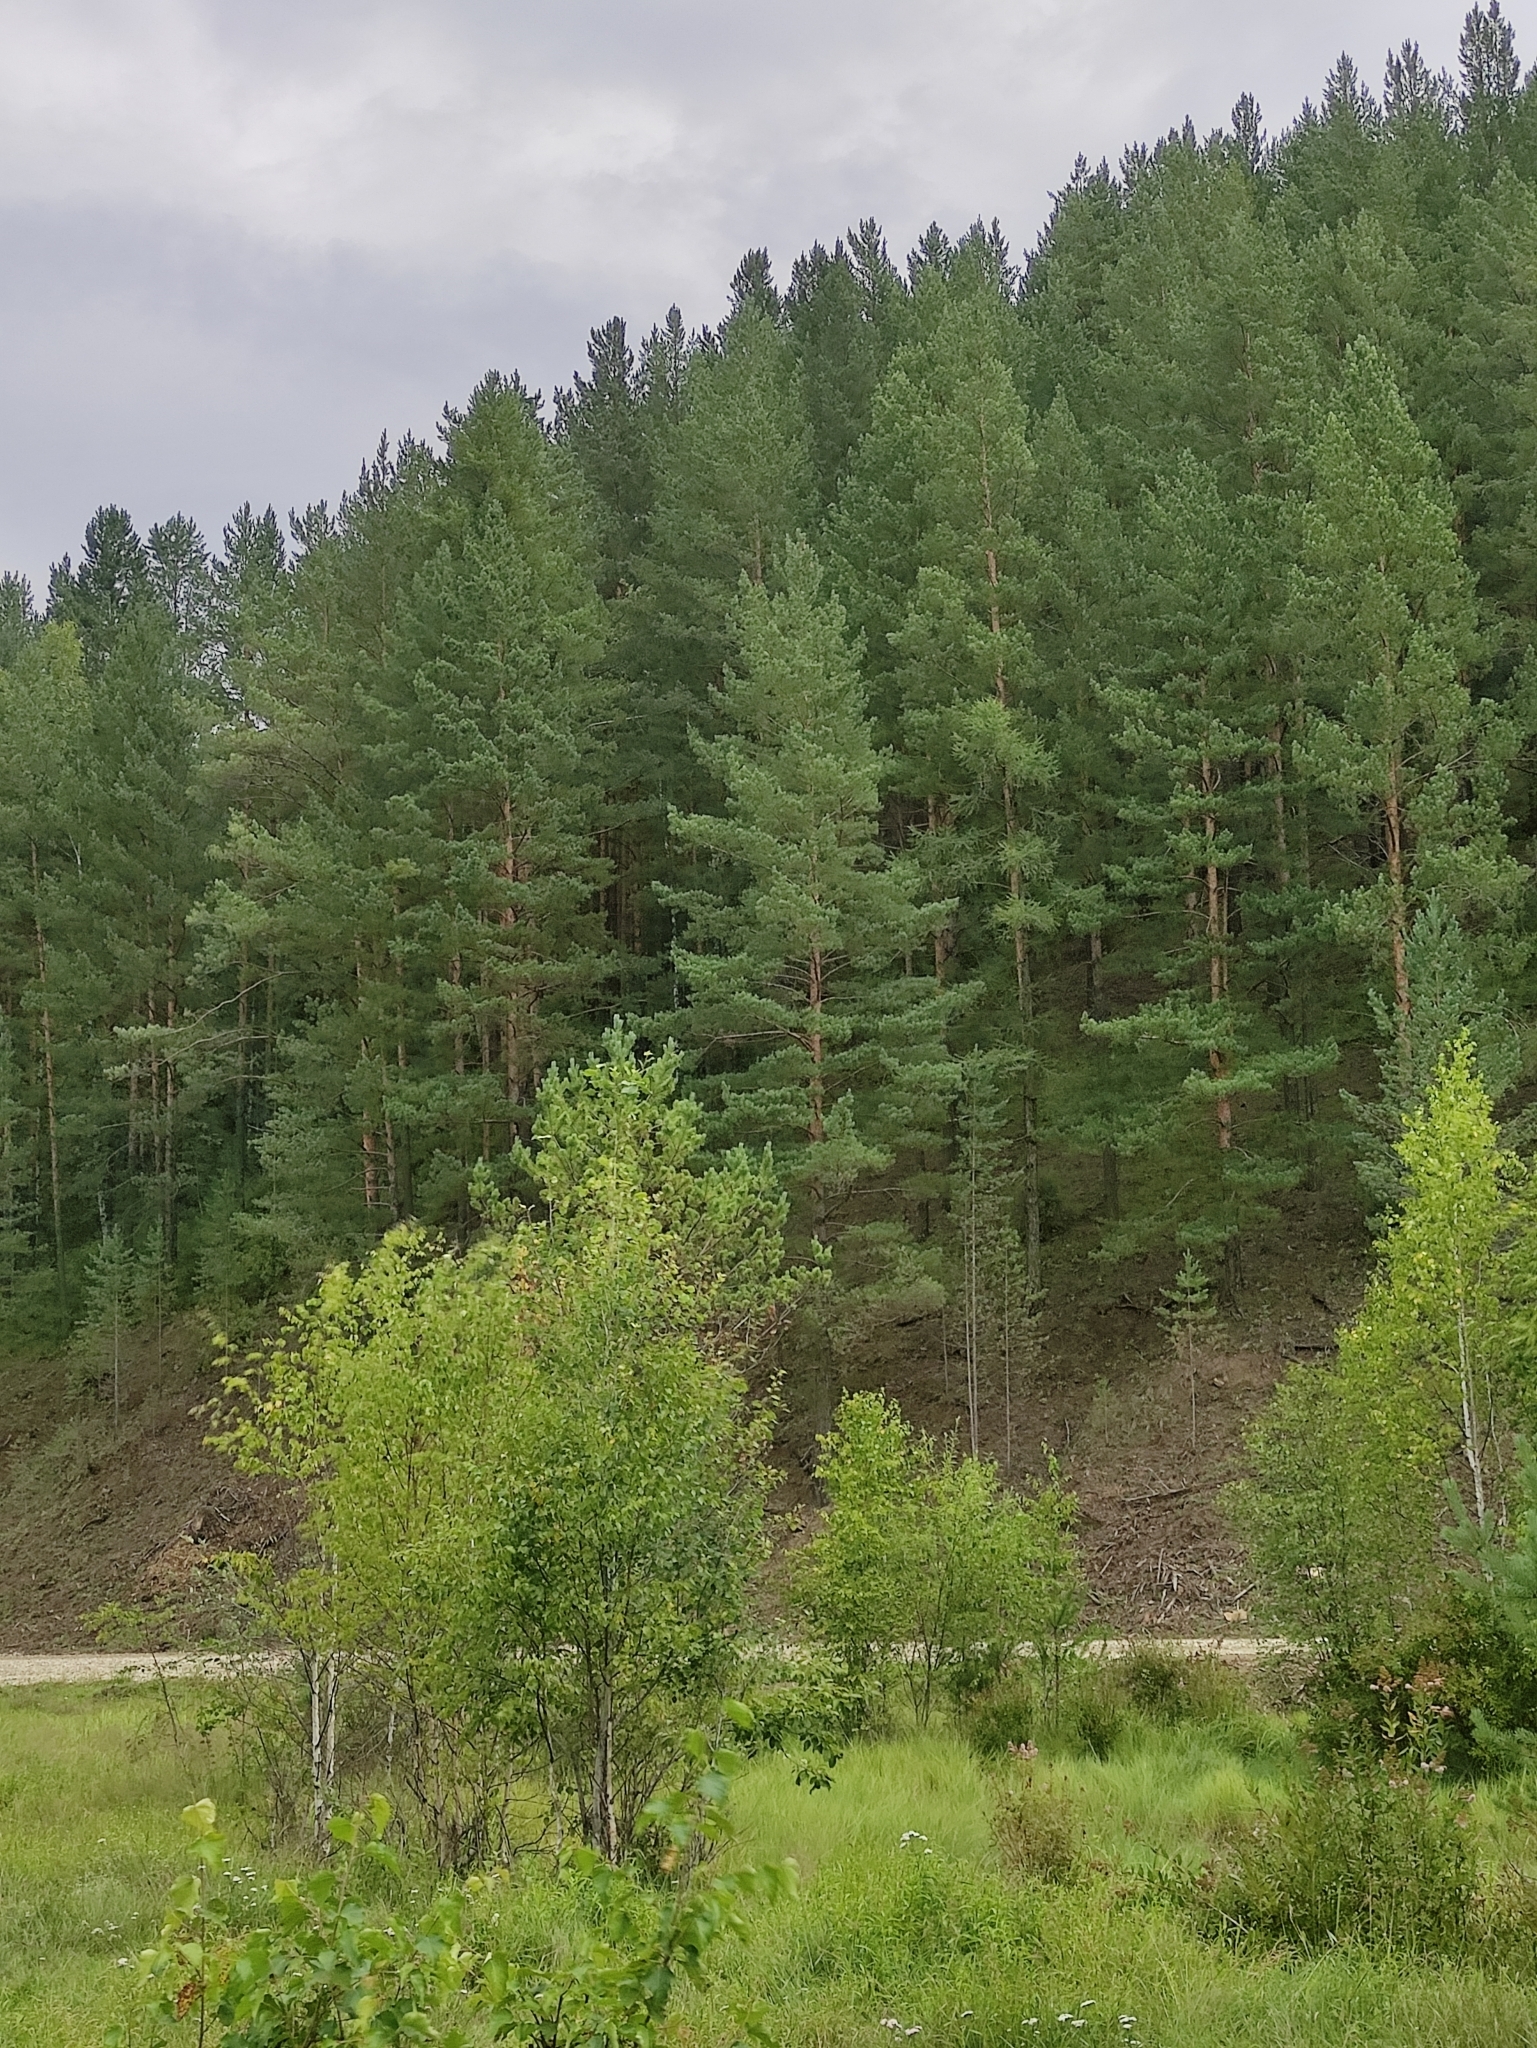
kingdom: Plantae
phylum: Tracheophyta
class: Pinopsida
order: Pinales
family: Pinaceae
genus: Pinus
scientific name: Pinus sylvestris
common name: Scots pine
